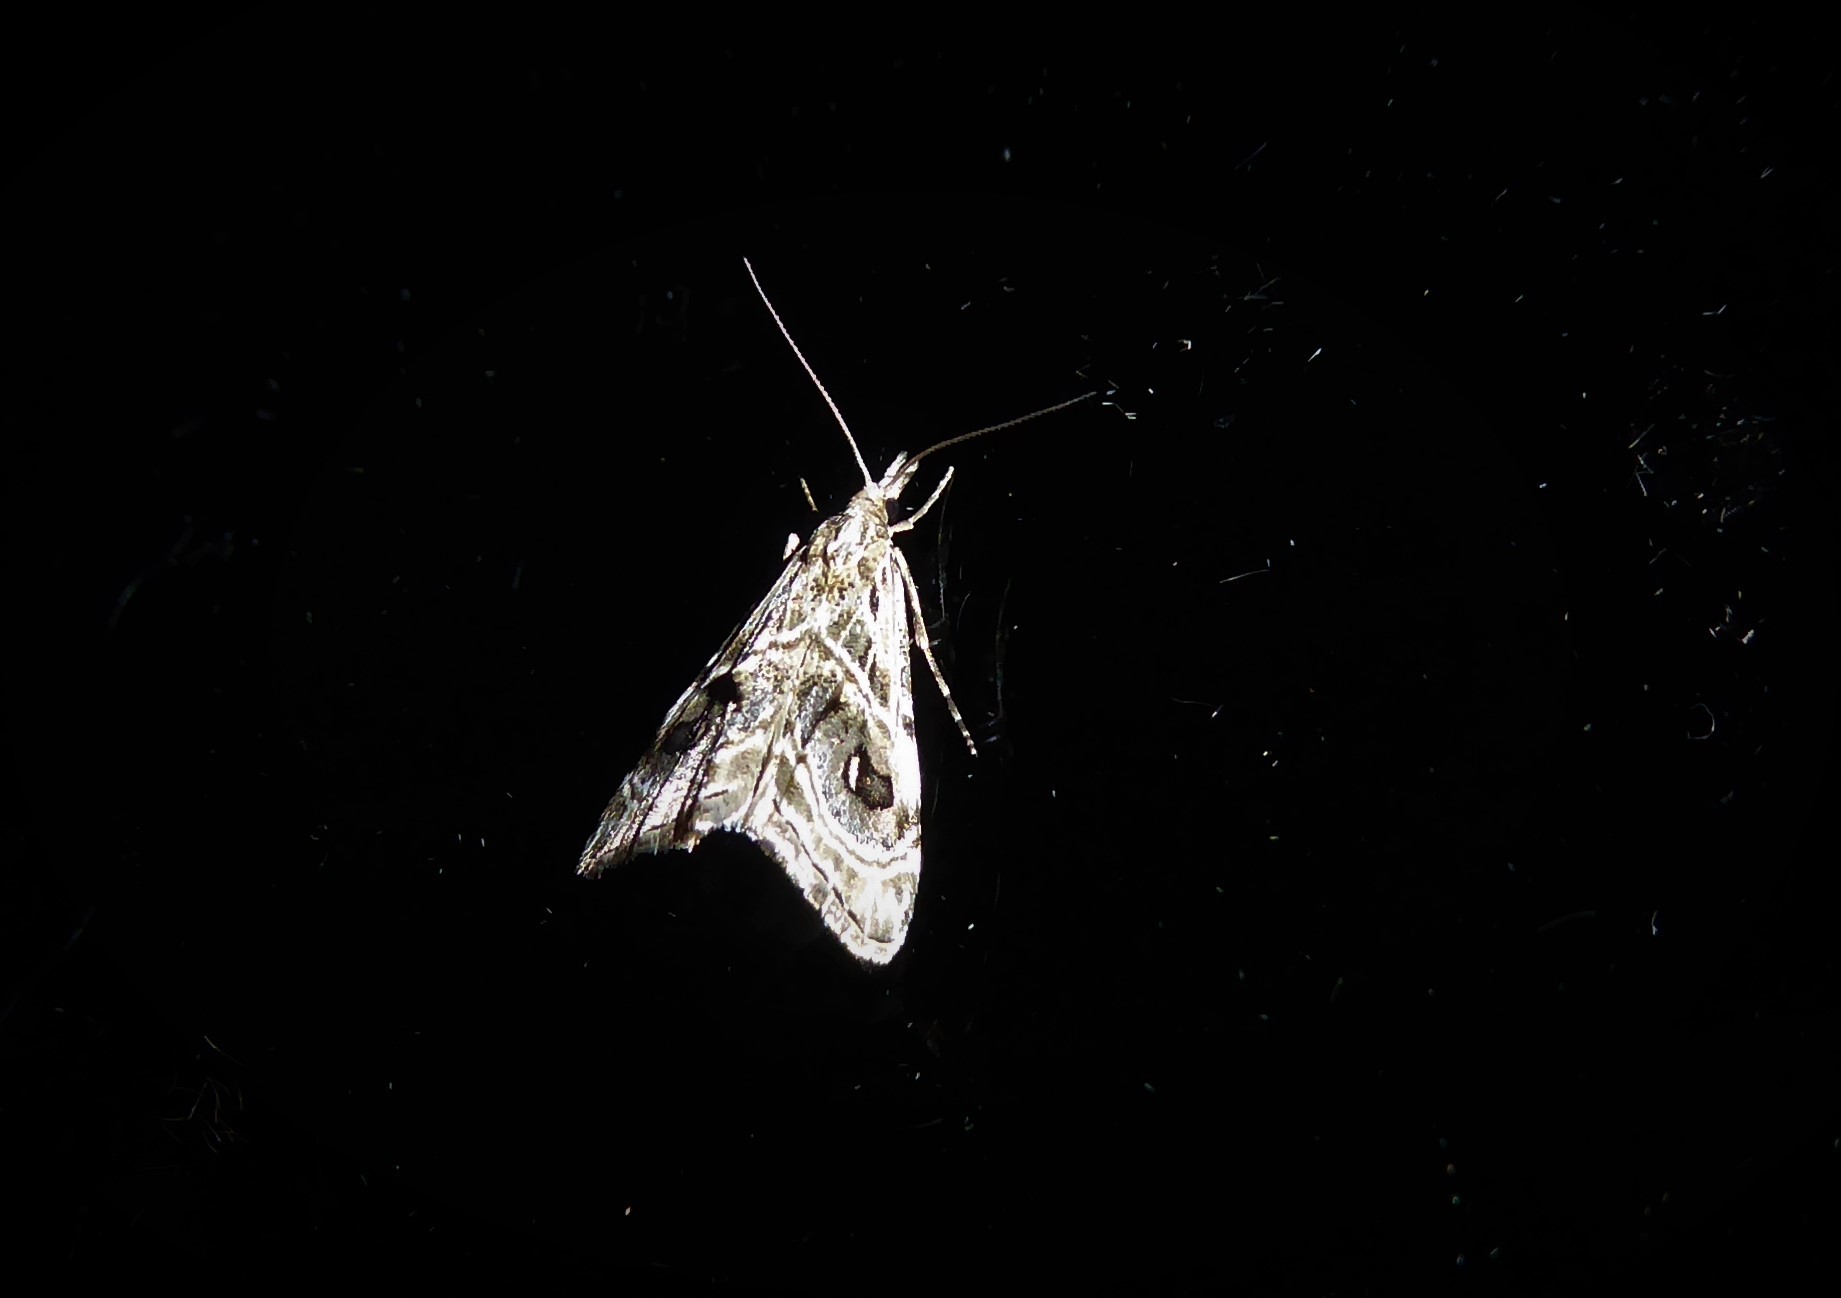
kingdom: Animalia
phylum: Arthropoda
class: Insecta
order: Lepidoptera
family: Crambidae
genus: Gadira
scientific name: Gadira acerella
